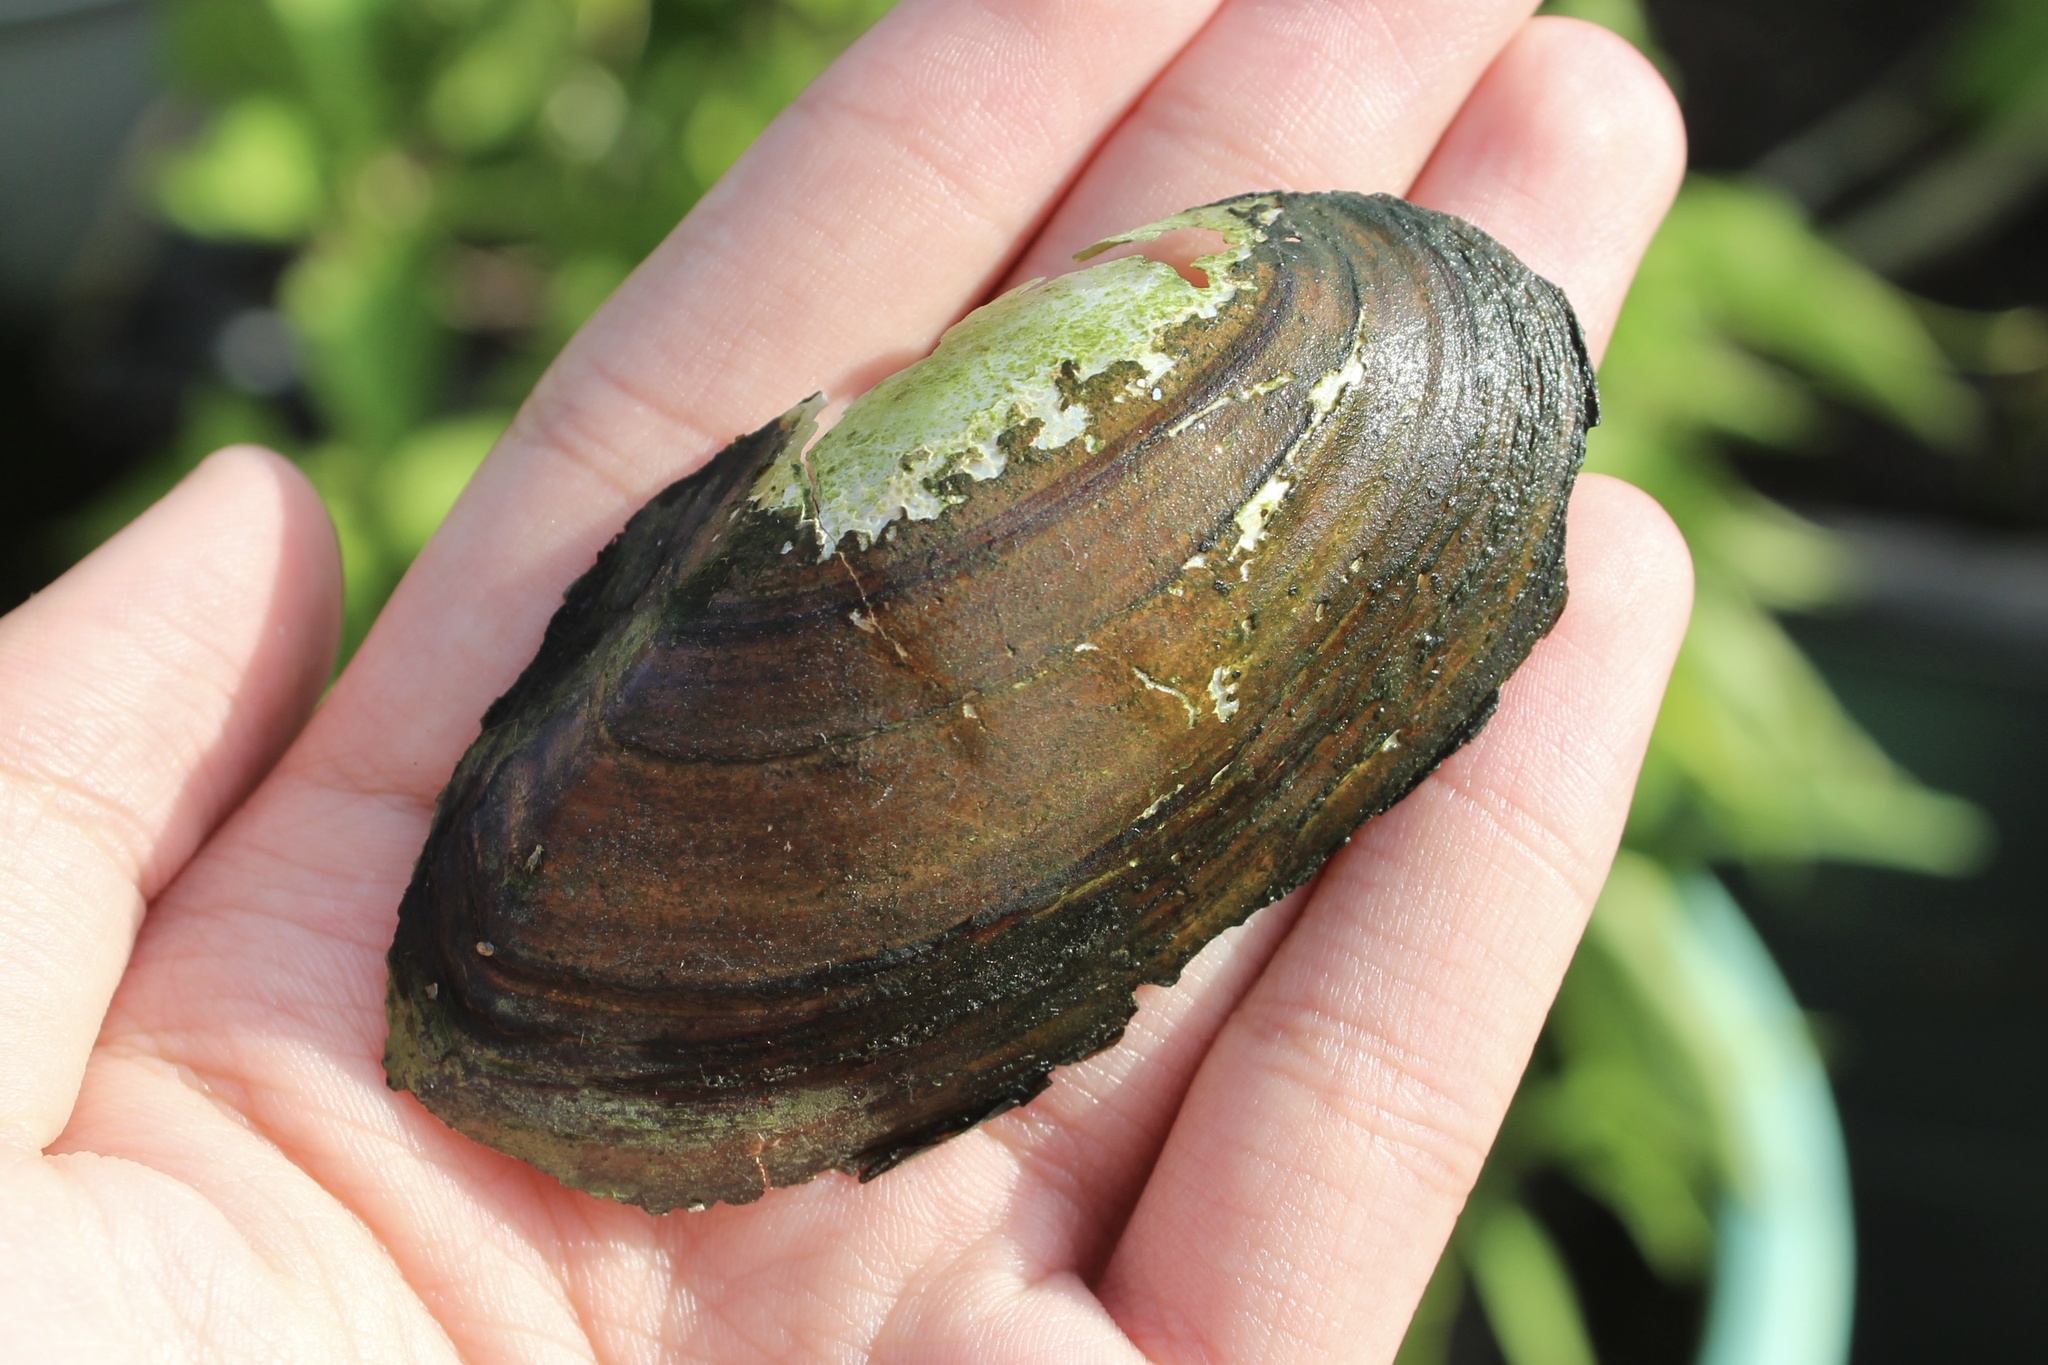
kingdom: Animalia
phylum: Mollusca
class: Bivalvia
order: Unionida
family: Unionidae
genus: Utterbackia
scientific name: Utterbackia imbecillis
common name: Paper pondshell
